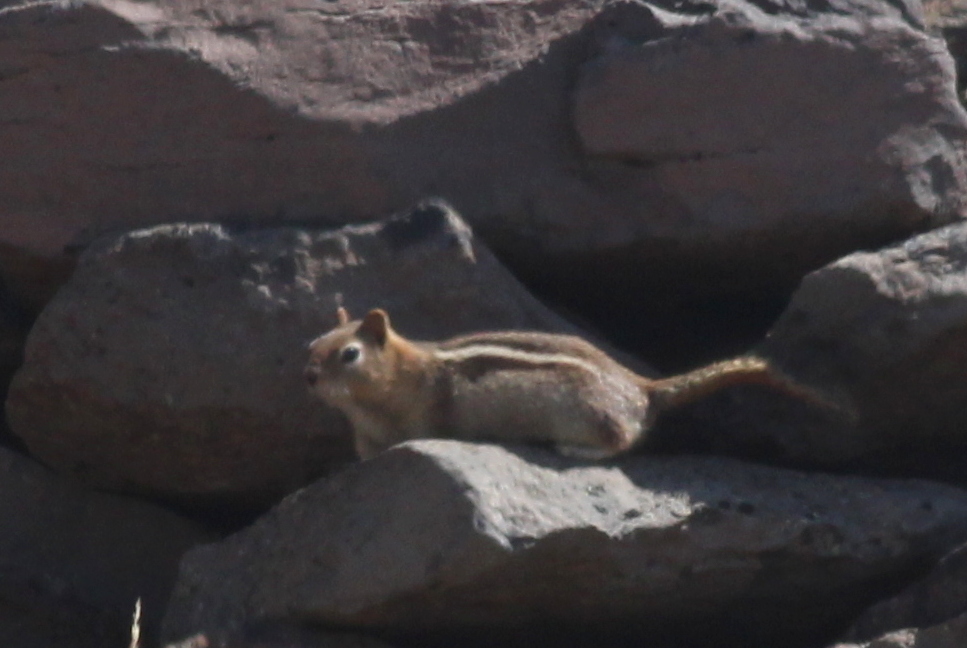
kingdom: Animalia
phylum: Chordata
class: Mammalia
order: Rodentia
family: Sciuridae
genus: Callospermophilus
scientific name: Callospermophilus lateralis
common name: Golden-mantled ground squirrel
